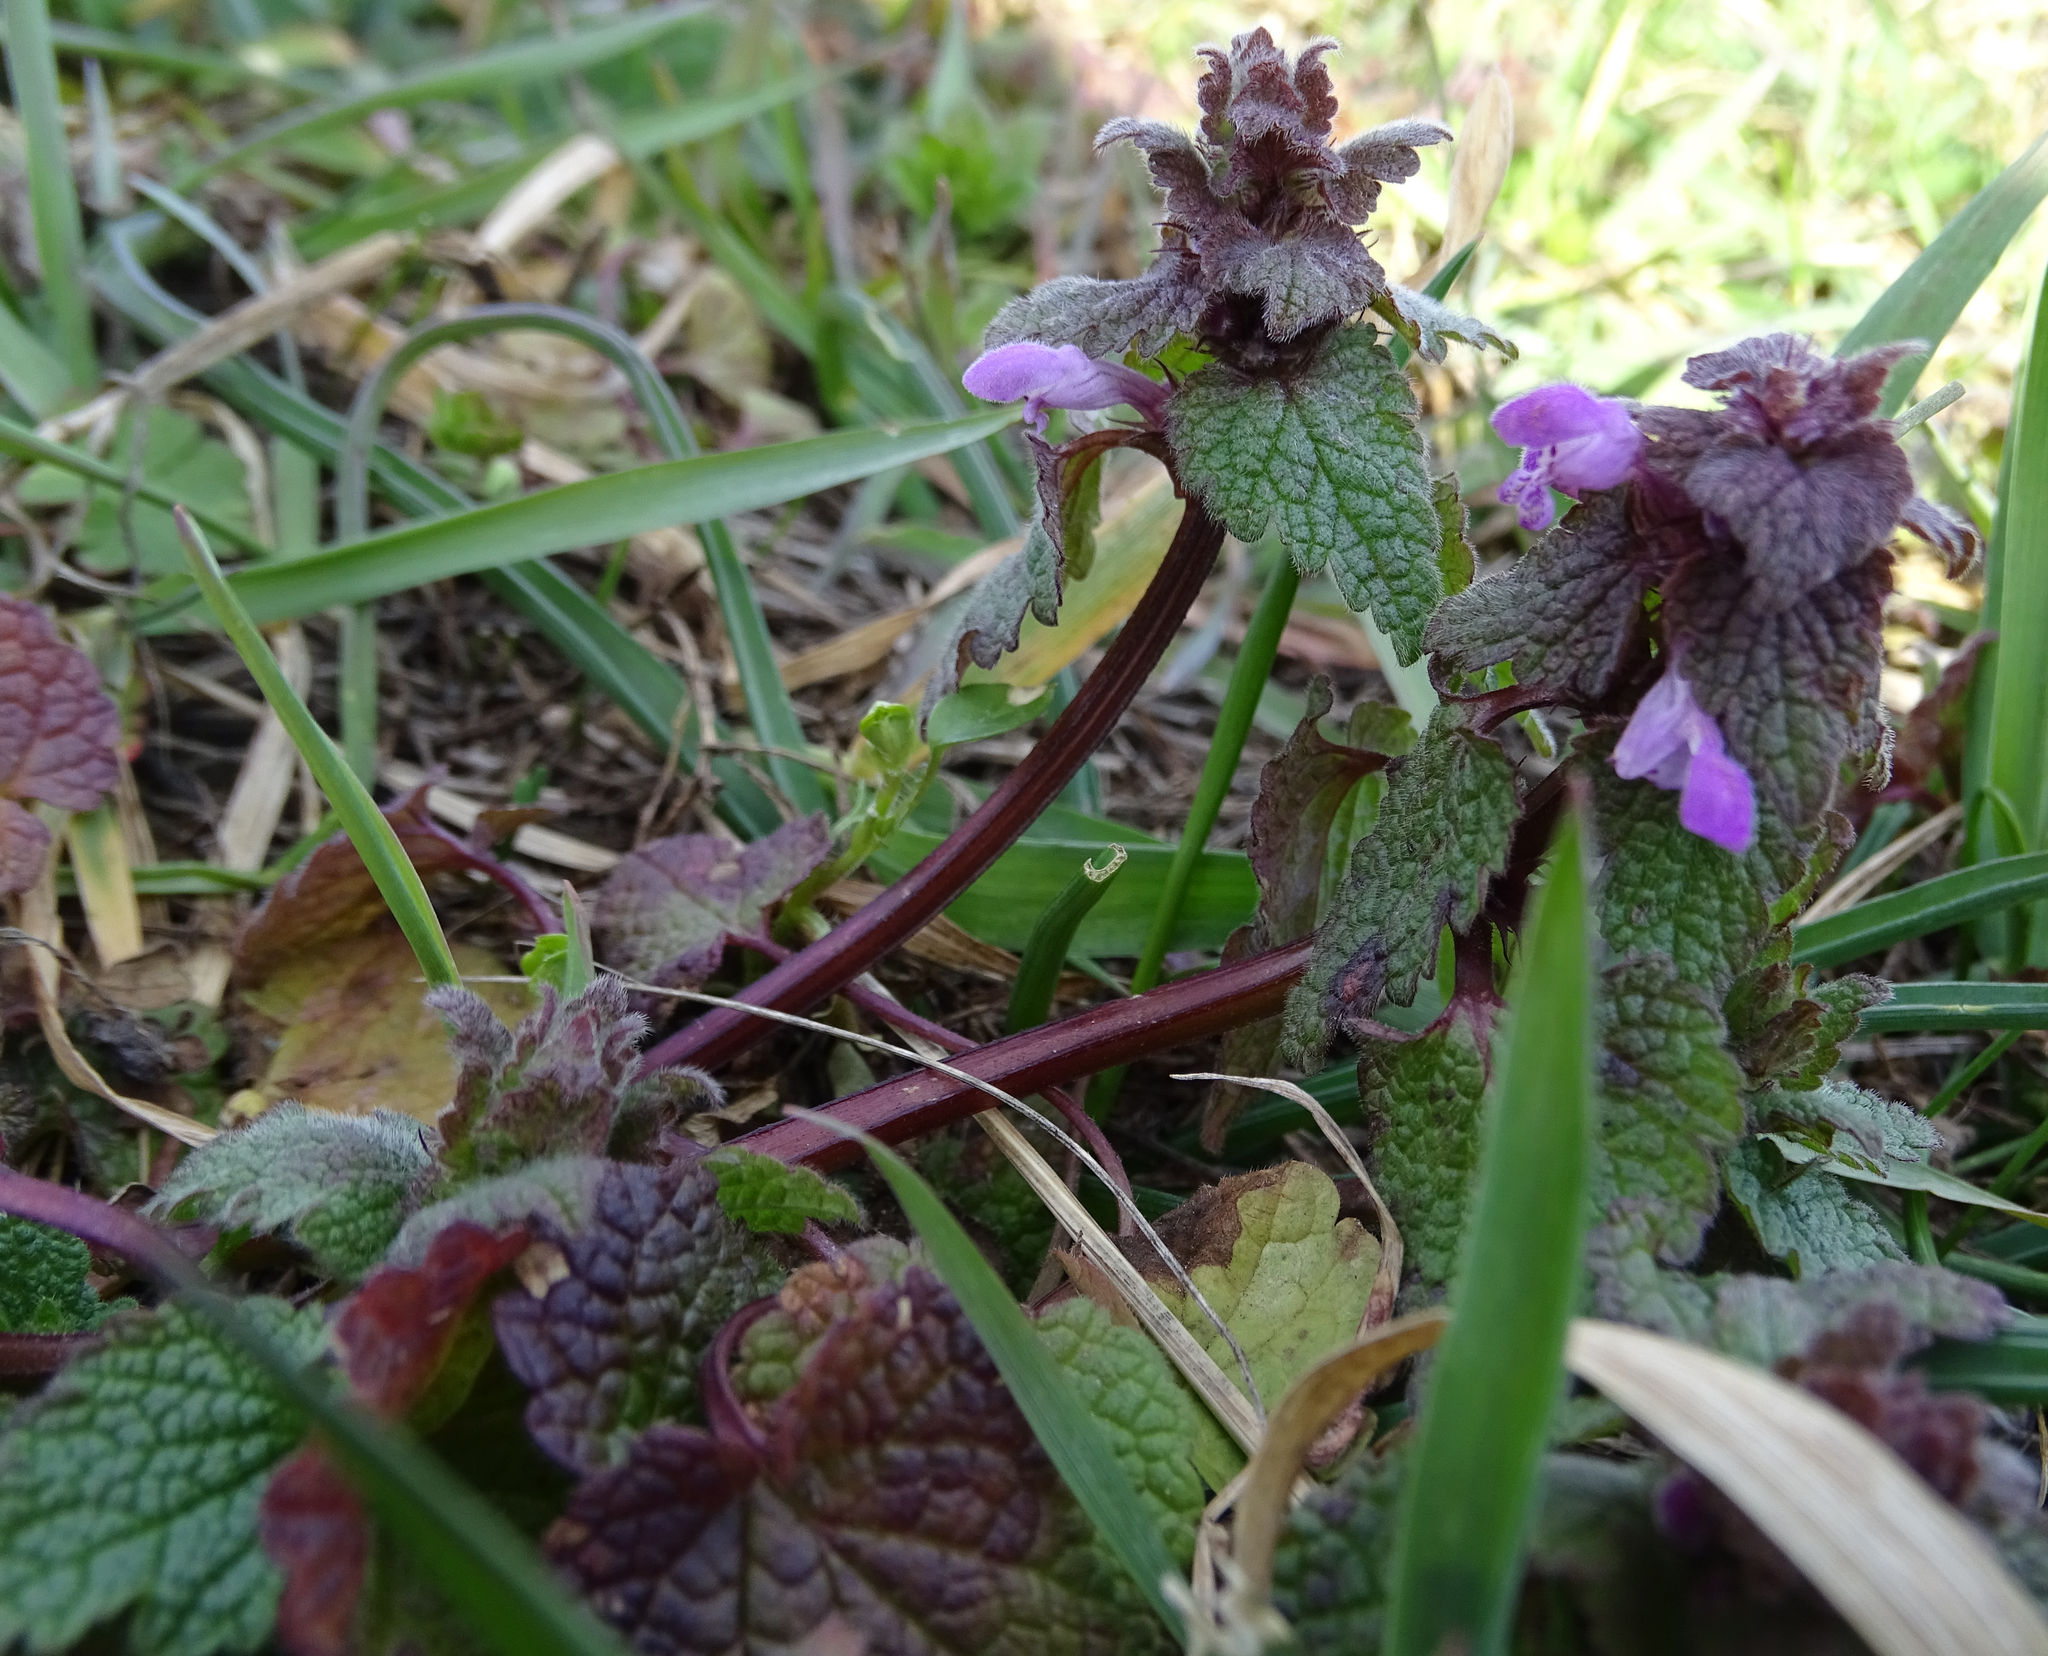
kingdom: Plantae
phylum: Tracheophyta
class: Magnoliopsida
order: Lamiales
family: Lamiaceae
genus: Lamium
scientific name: Lamium purpureum
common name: Red dead-nettle
